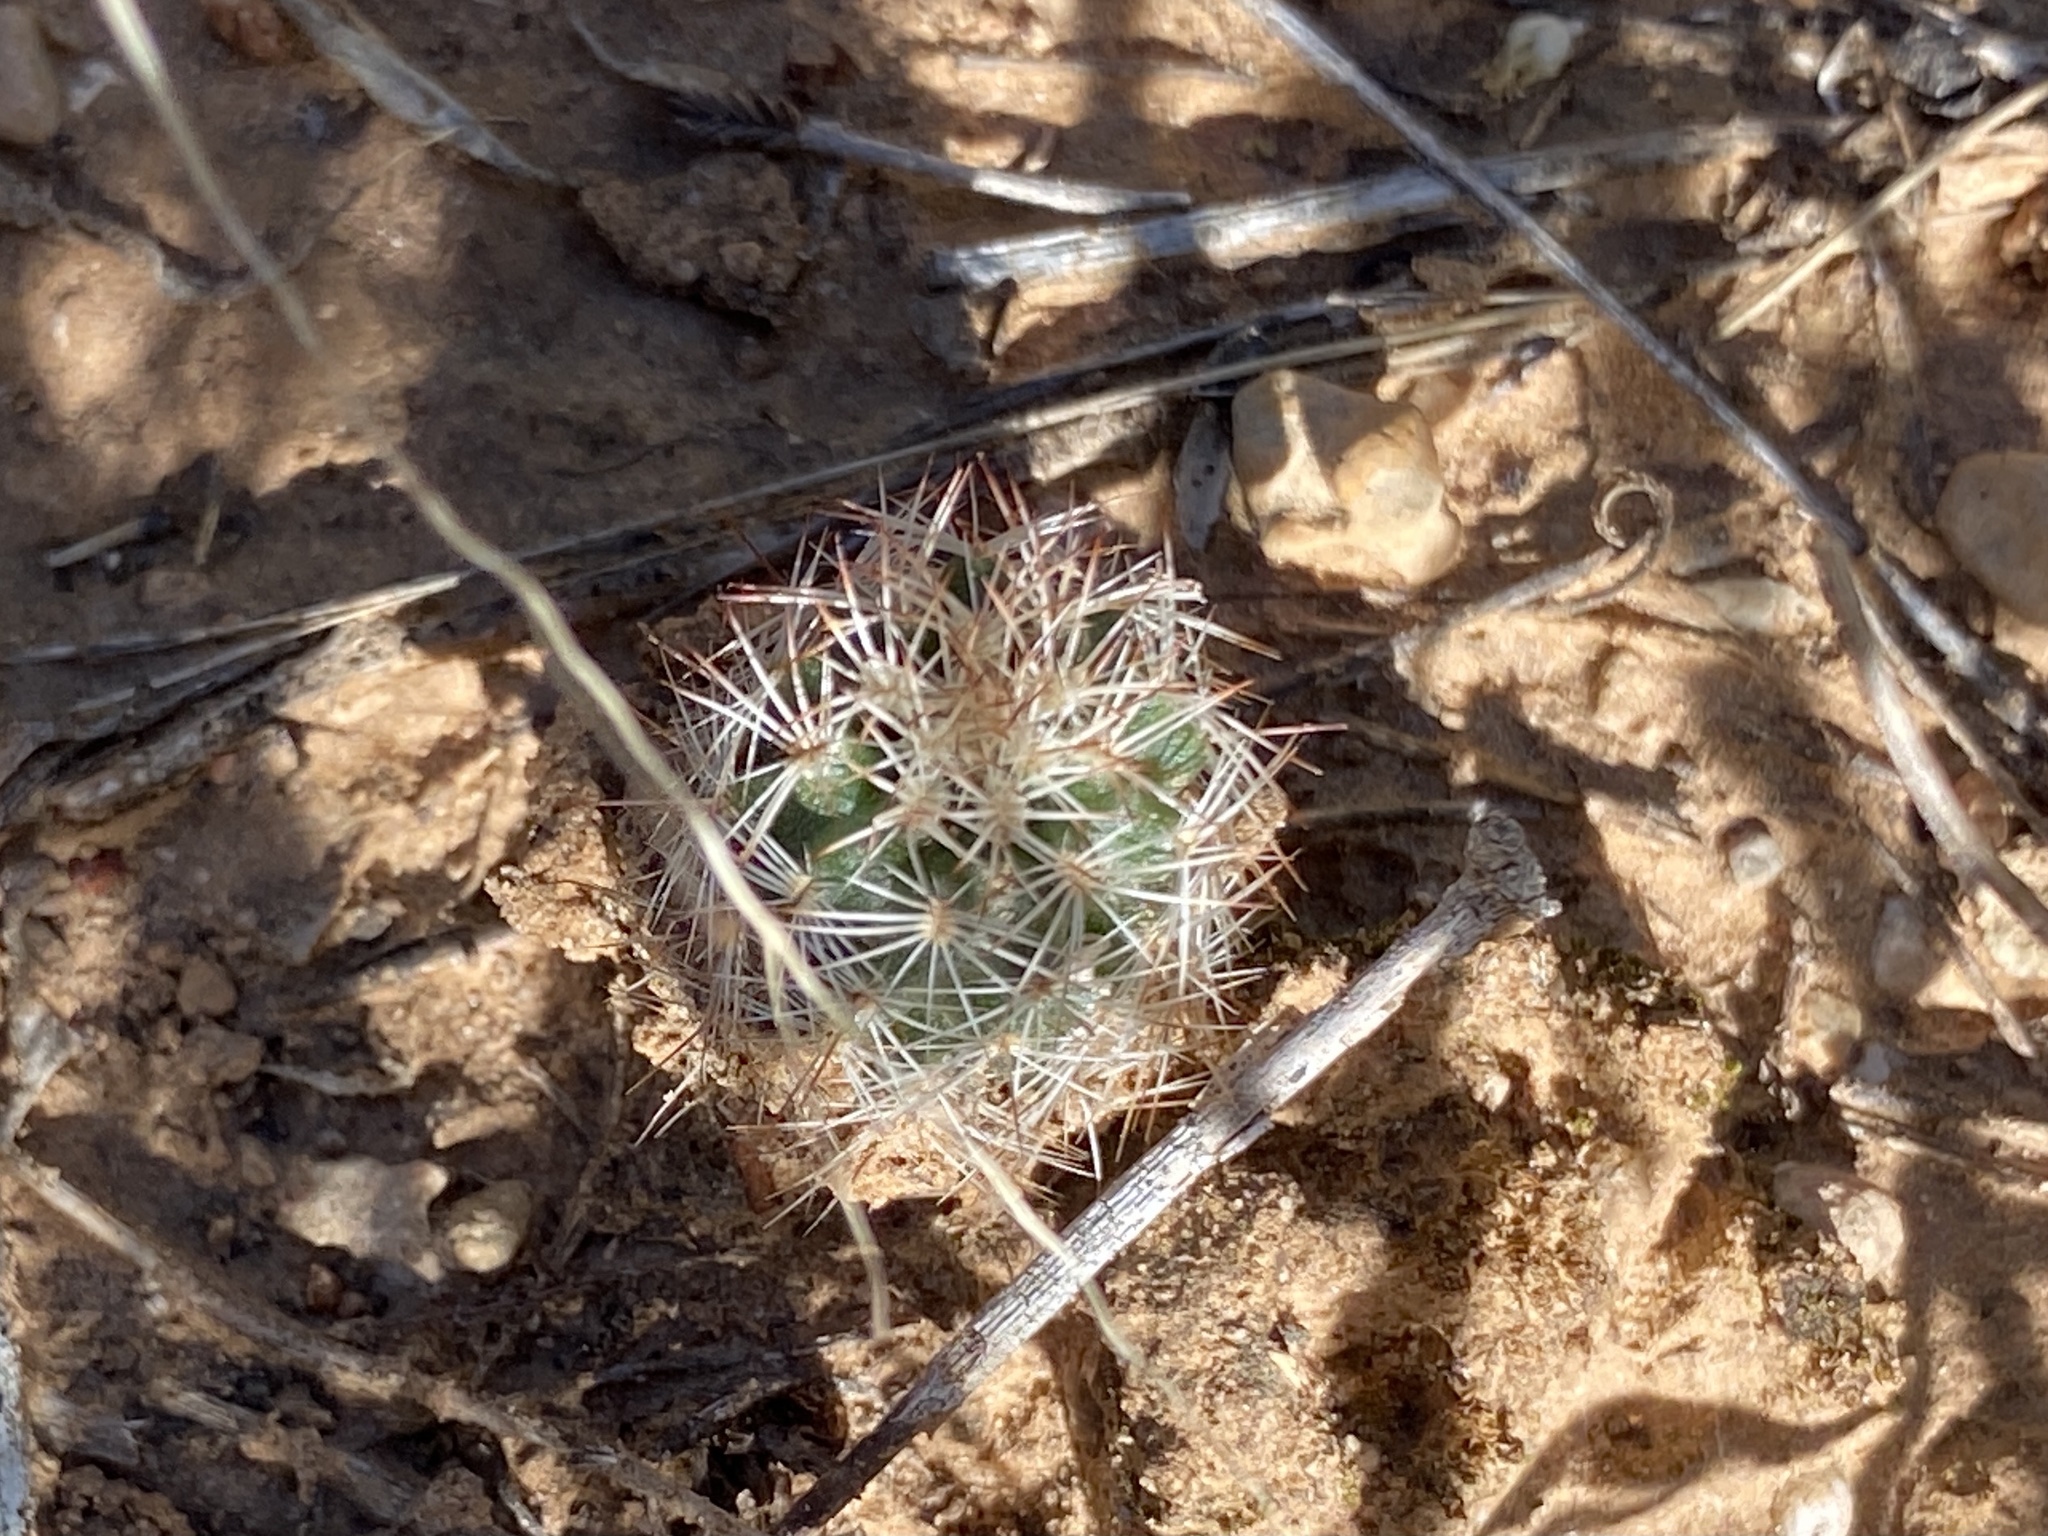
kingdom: Plantae
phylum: Tracheophyta
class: Magnoliopsida
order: Caryophyllales
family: Cactaceae
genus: Echinocereus
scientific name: Echinocereus reichenbachii
